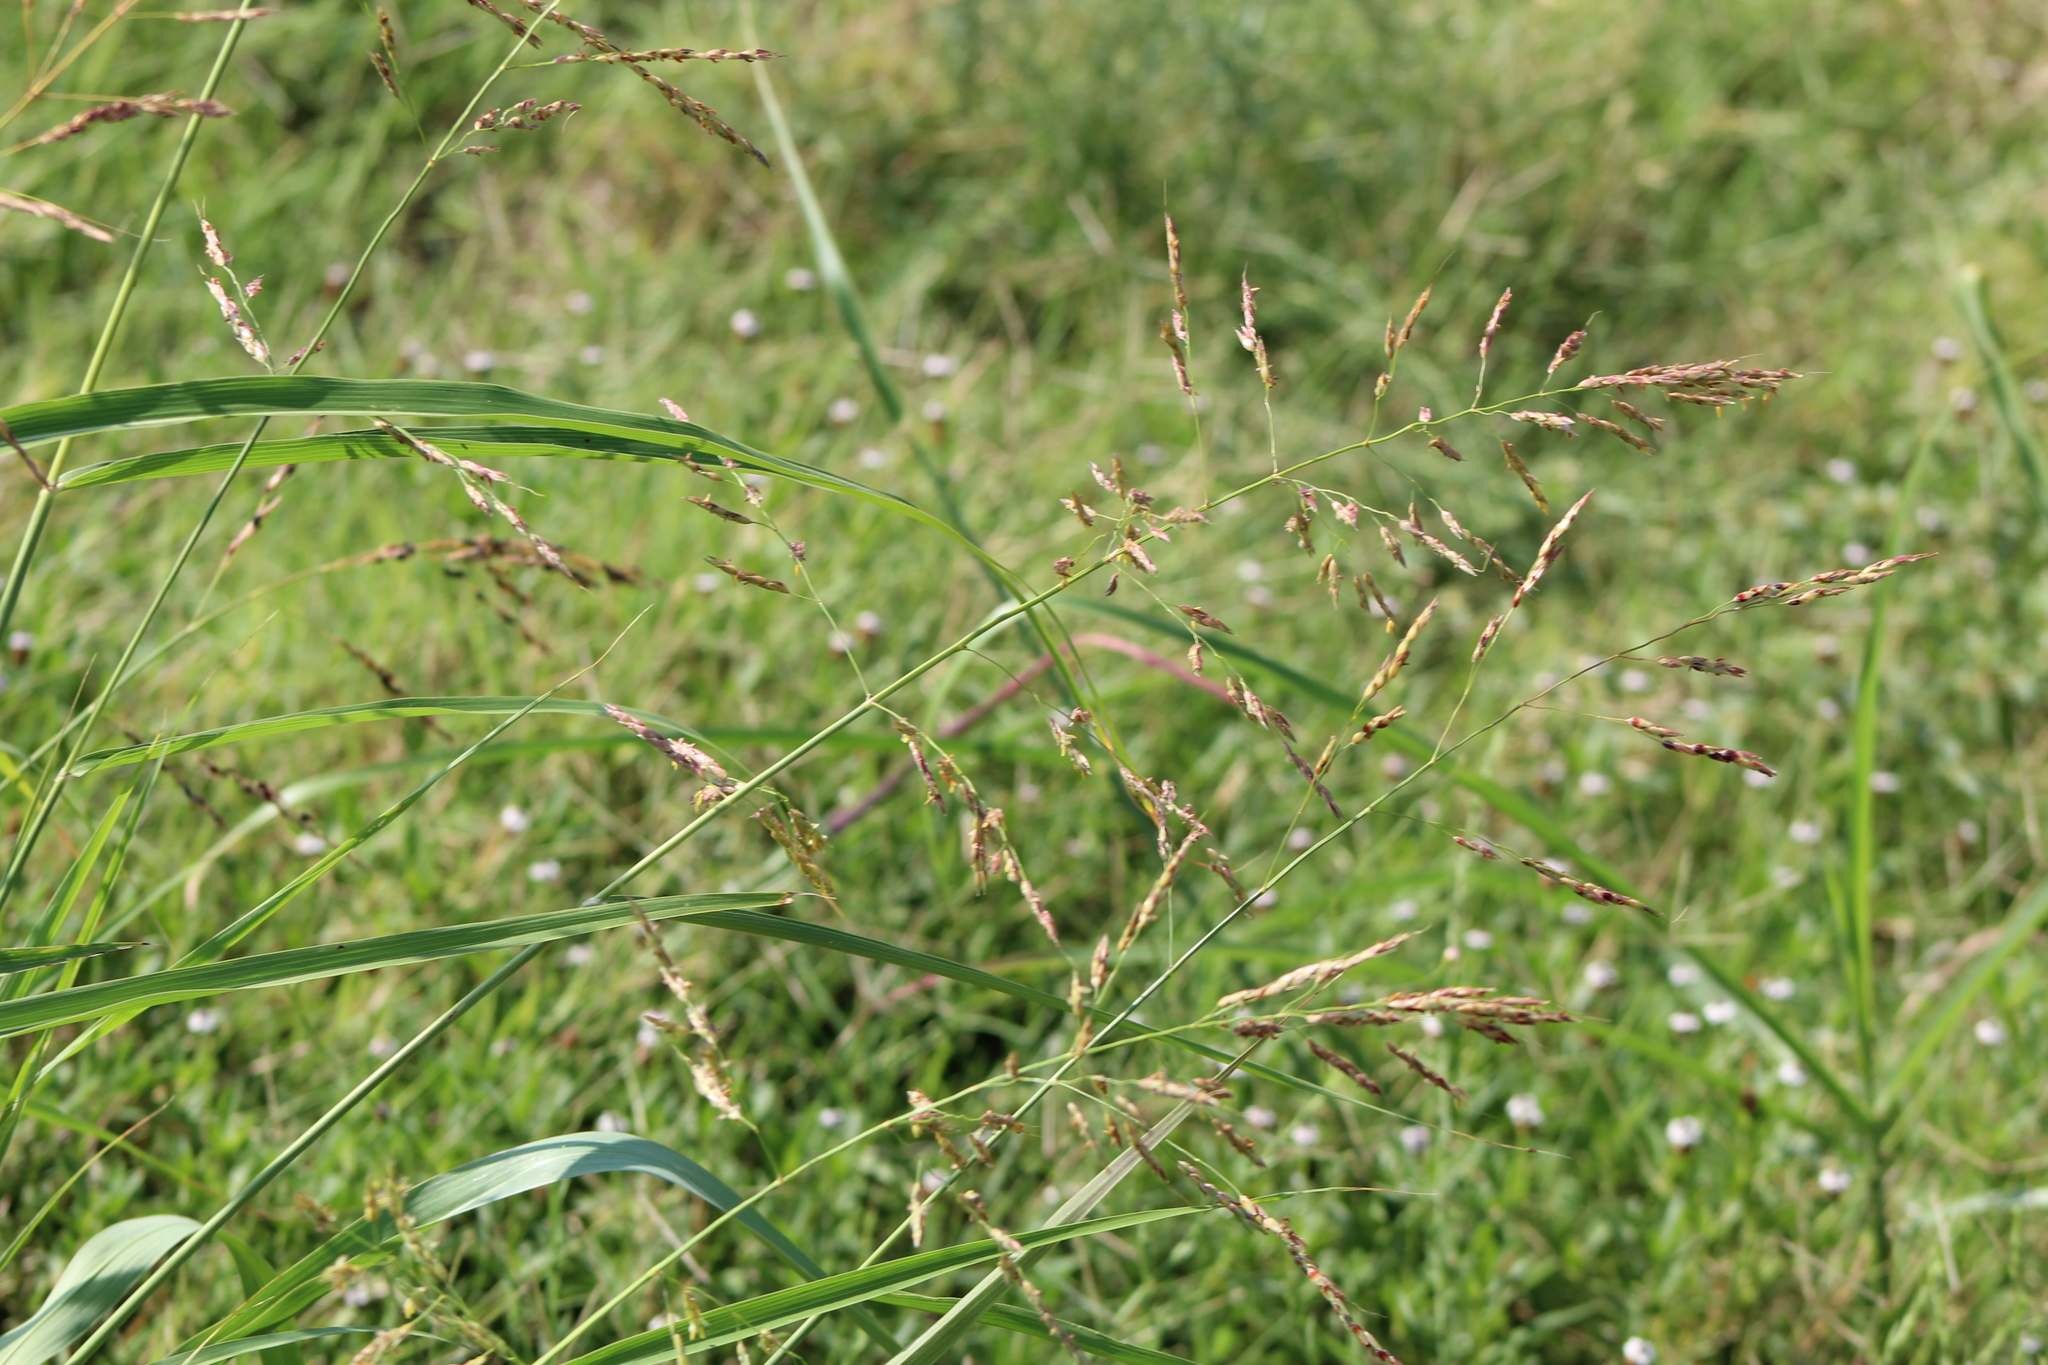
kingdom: Plantae
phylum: Tracheophyta
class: Liliopsida
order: Poales
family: Poaceae
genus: Sorghum
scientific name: Sorghum halepense
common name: Johnson-grass
